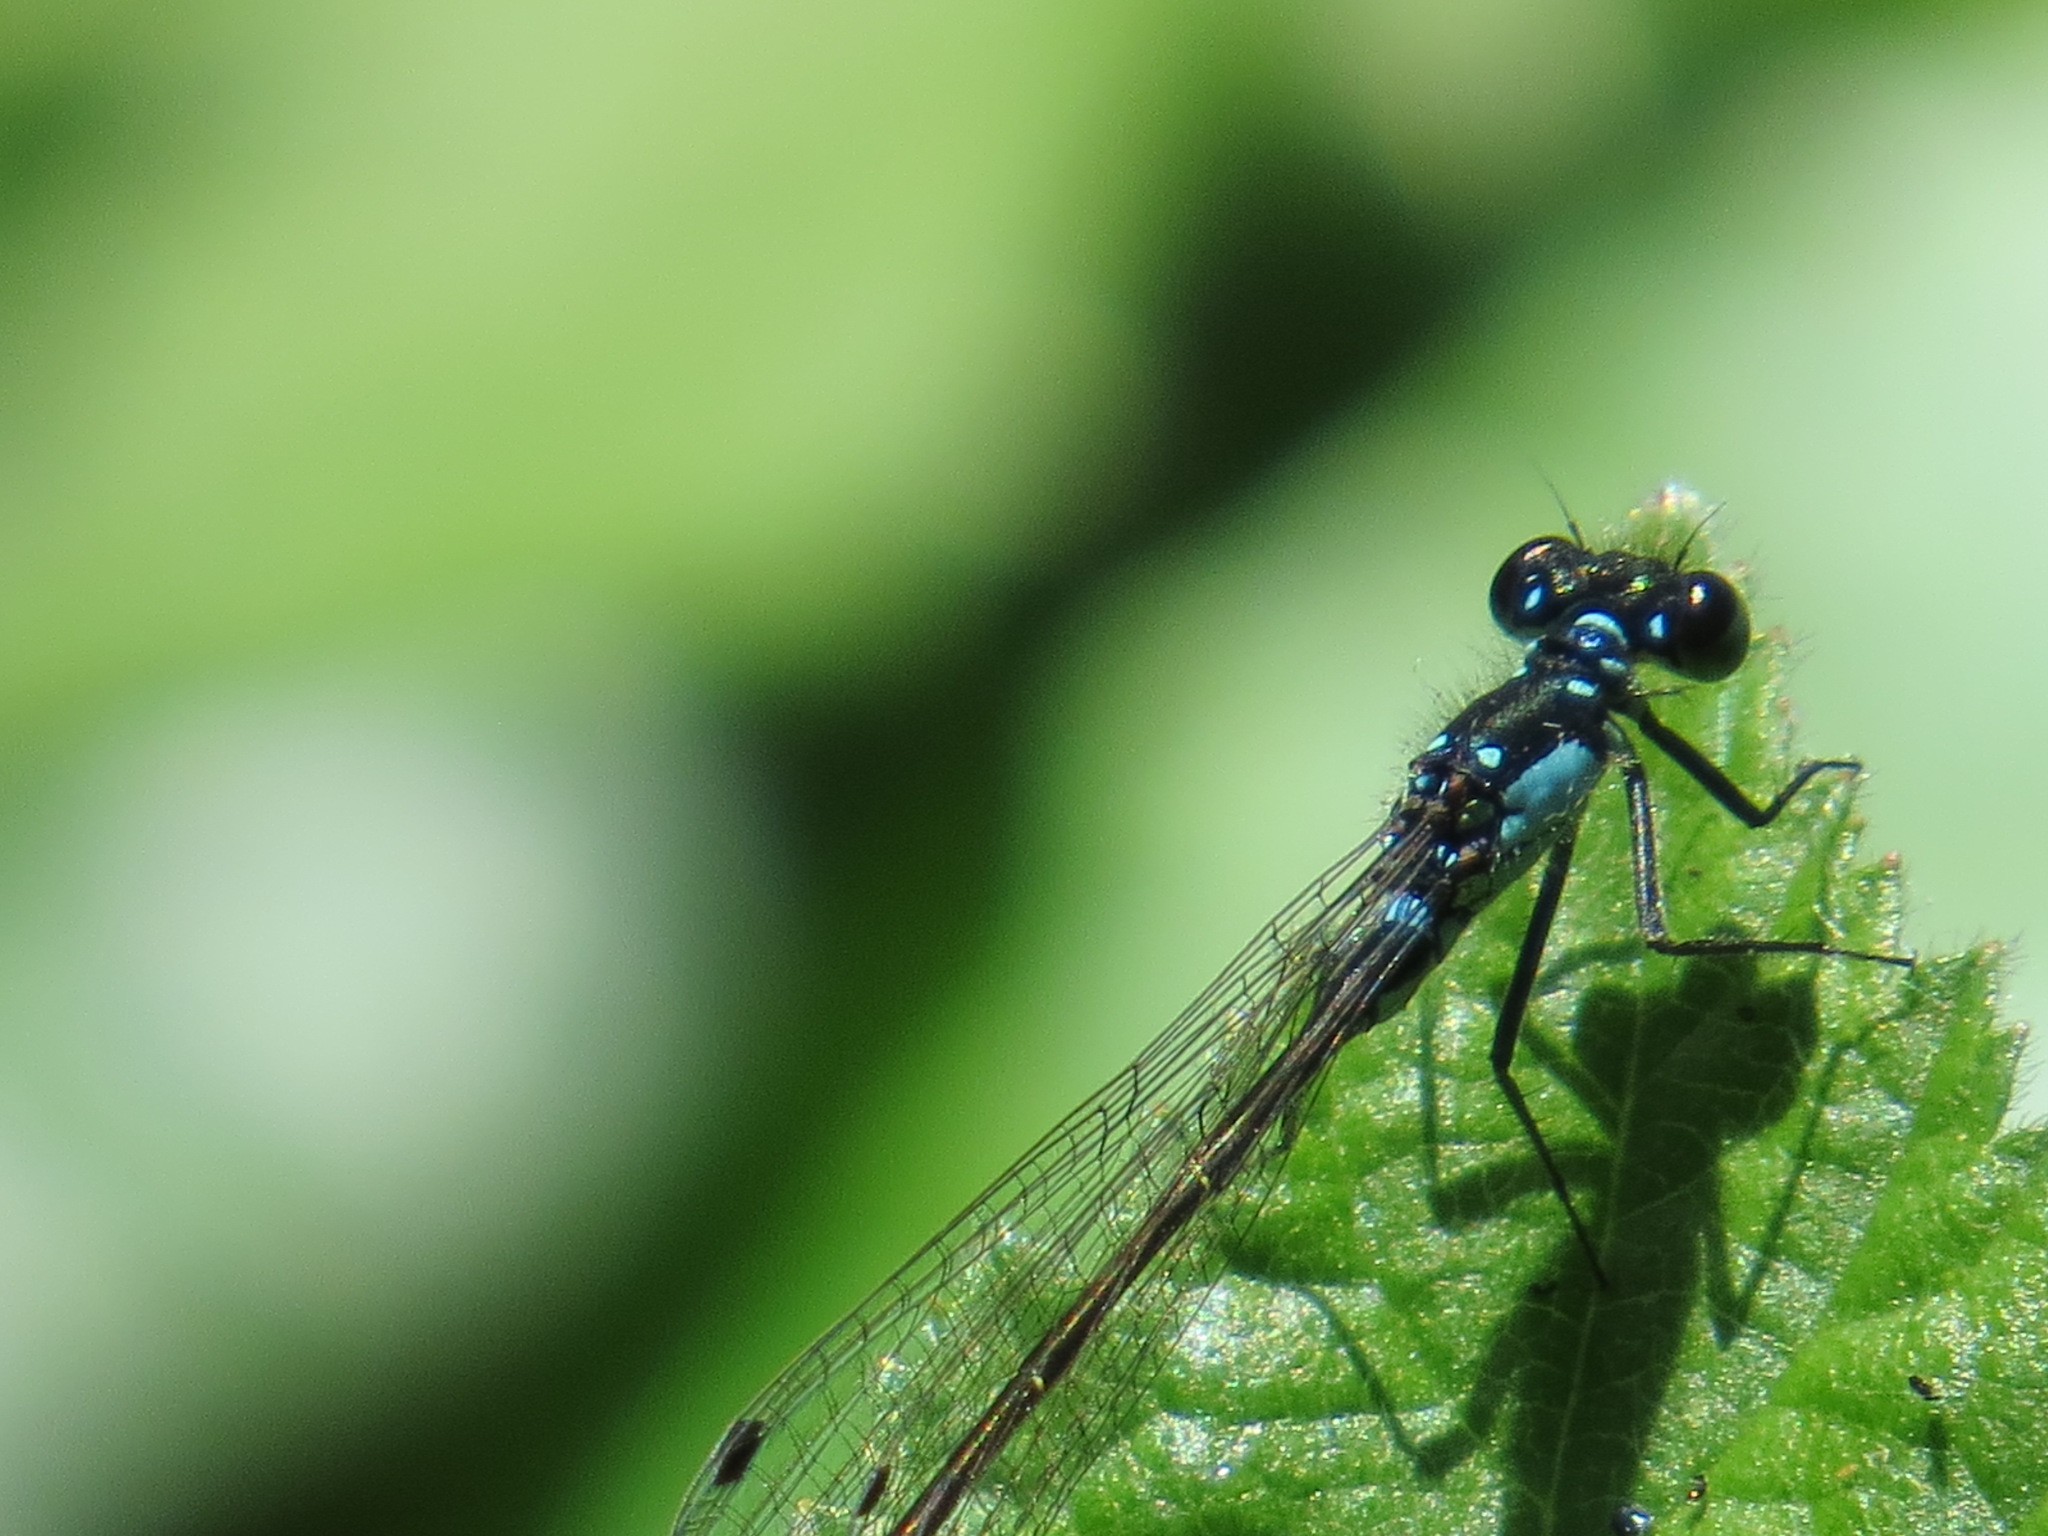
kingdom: Animalia
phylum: Arthropoda
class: Insecta
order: Odonata
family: Coenagrionidae
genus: Ischnura
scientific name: Ischnura cervula
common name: Pacific forktail
